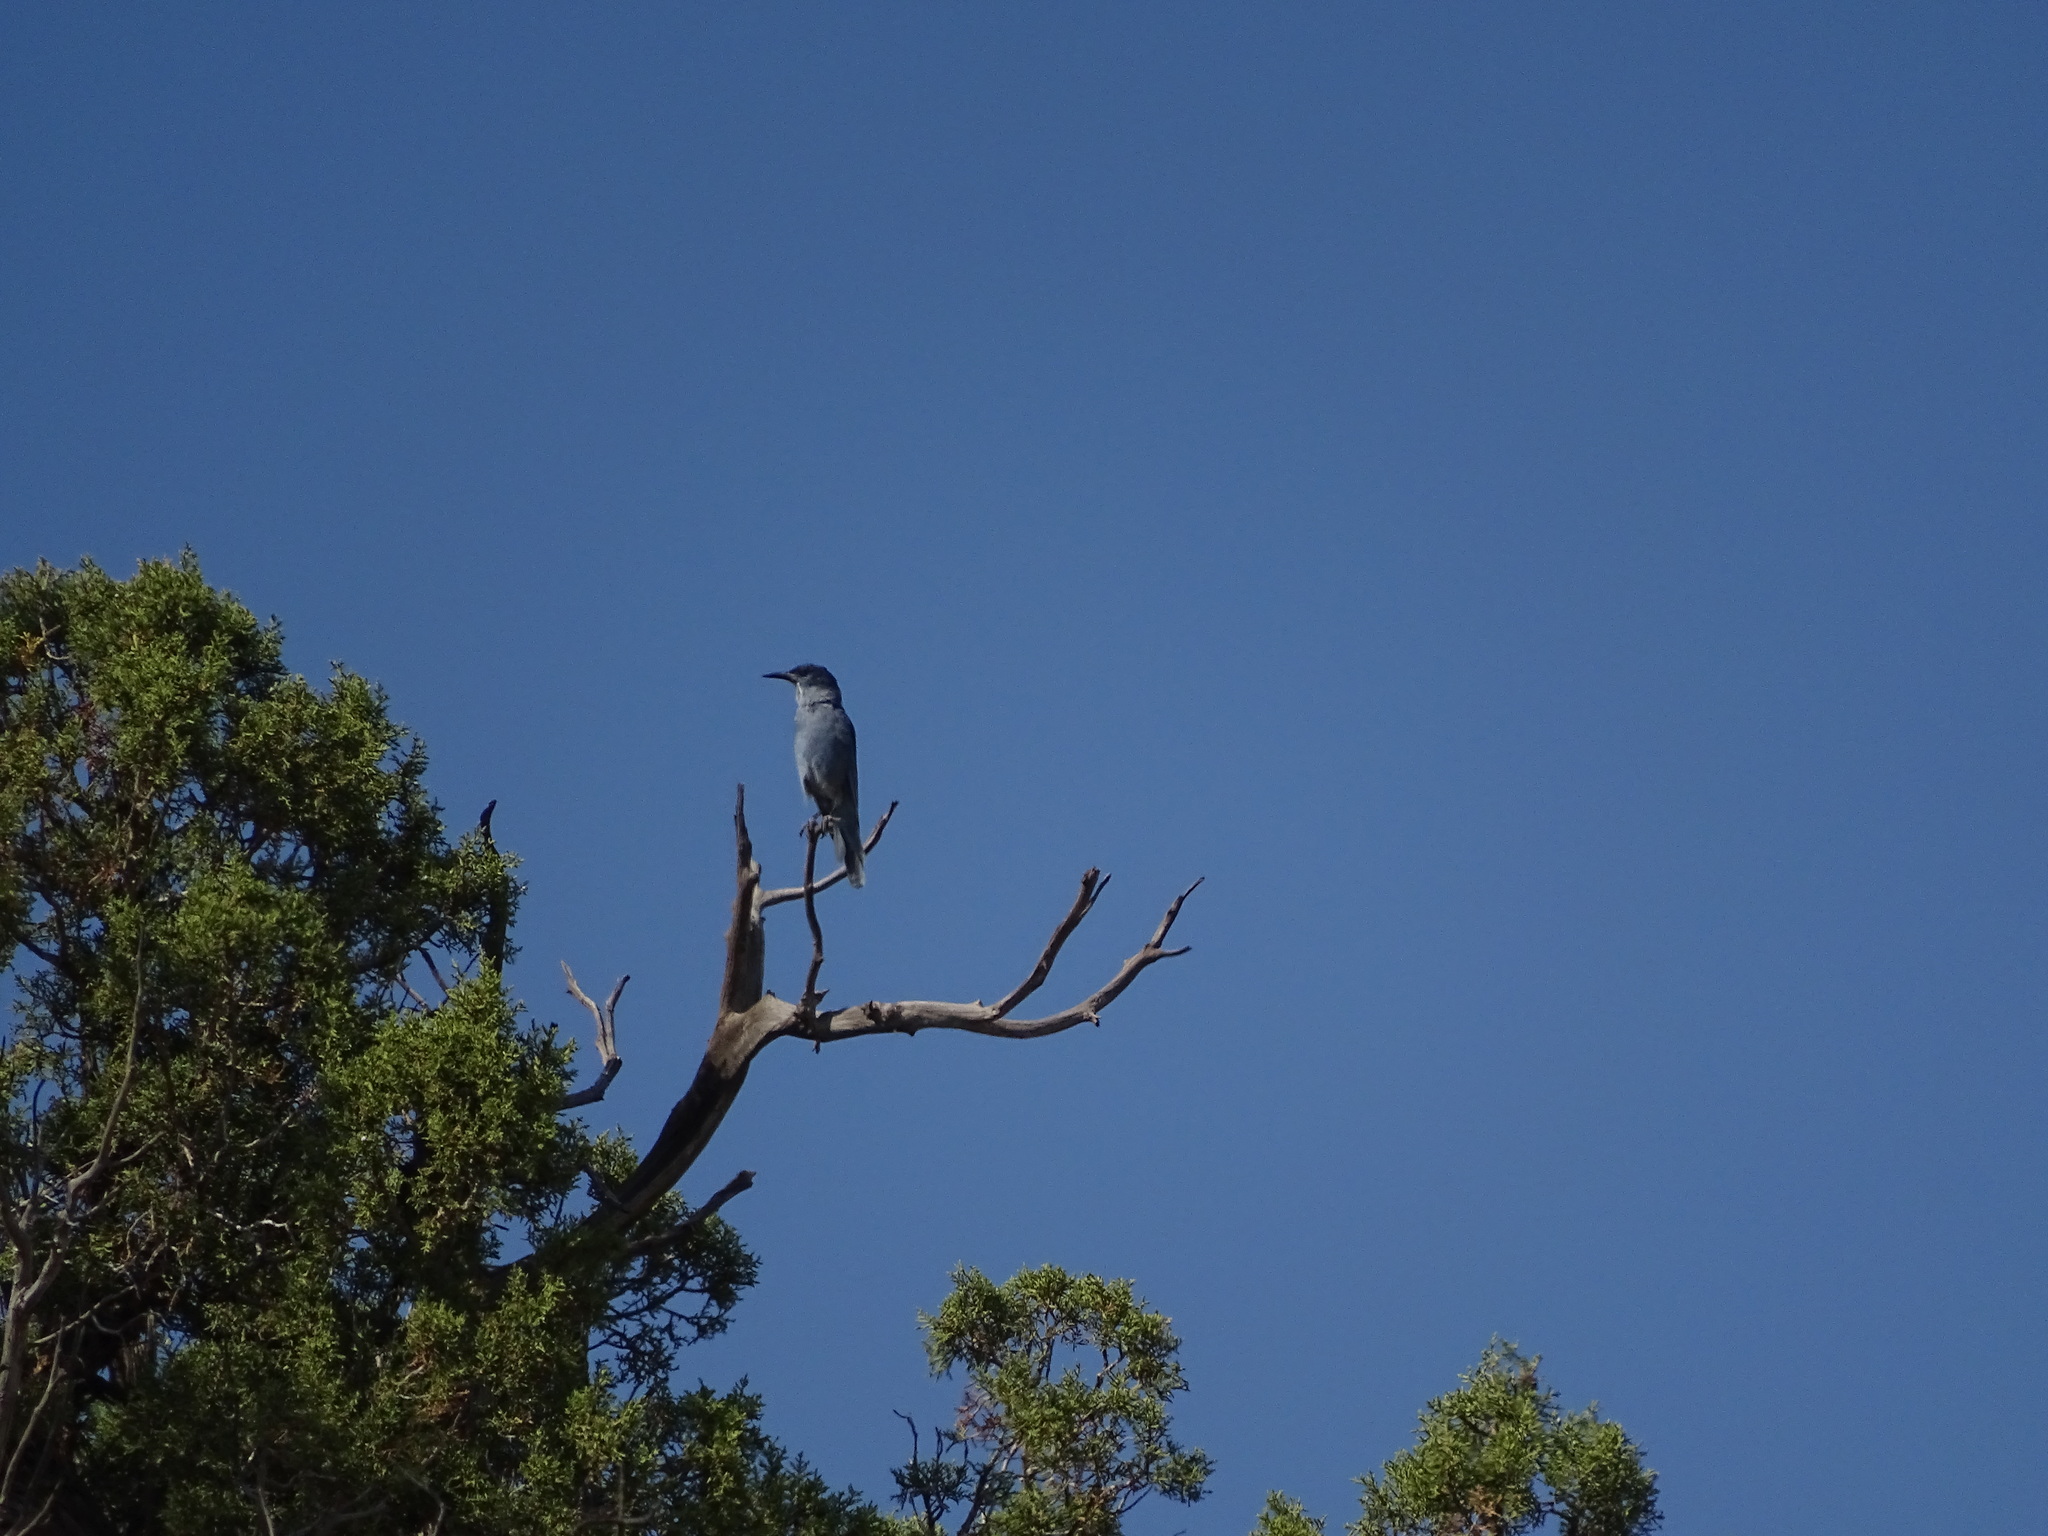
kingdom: Animalia
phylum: Chordata
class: Aves
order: Passeriformes
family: Corvidae
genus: Gymnorhinus
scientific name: Gymnorhinus cyanocephalus
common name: Pinyon jay
